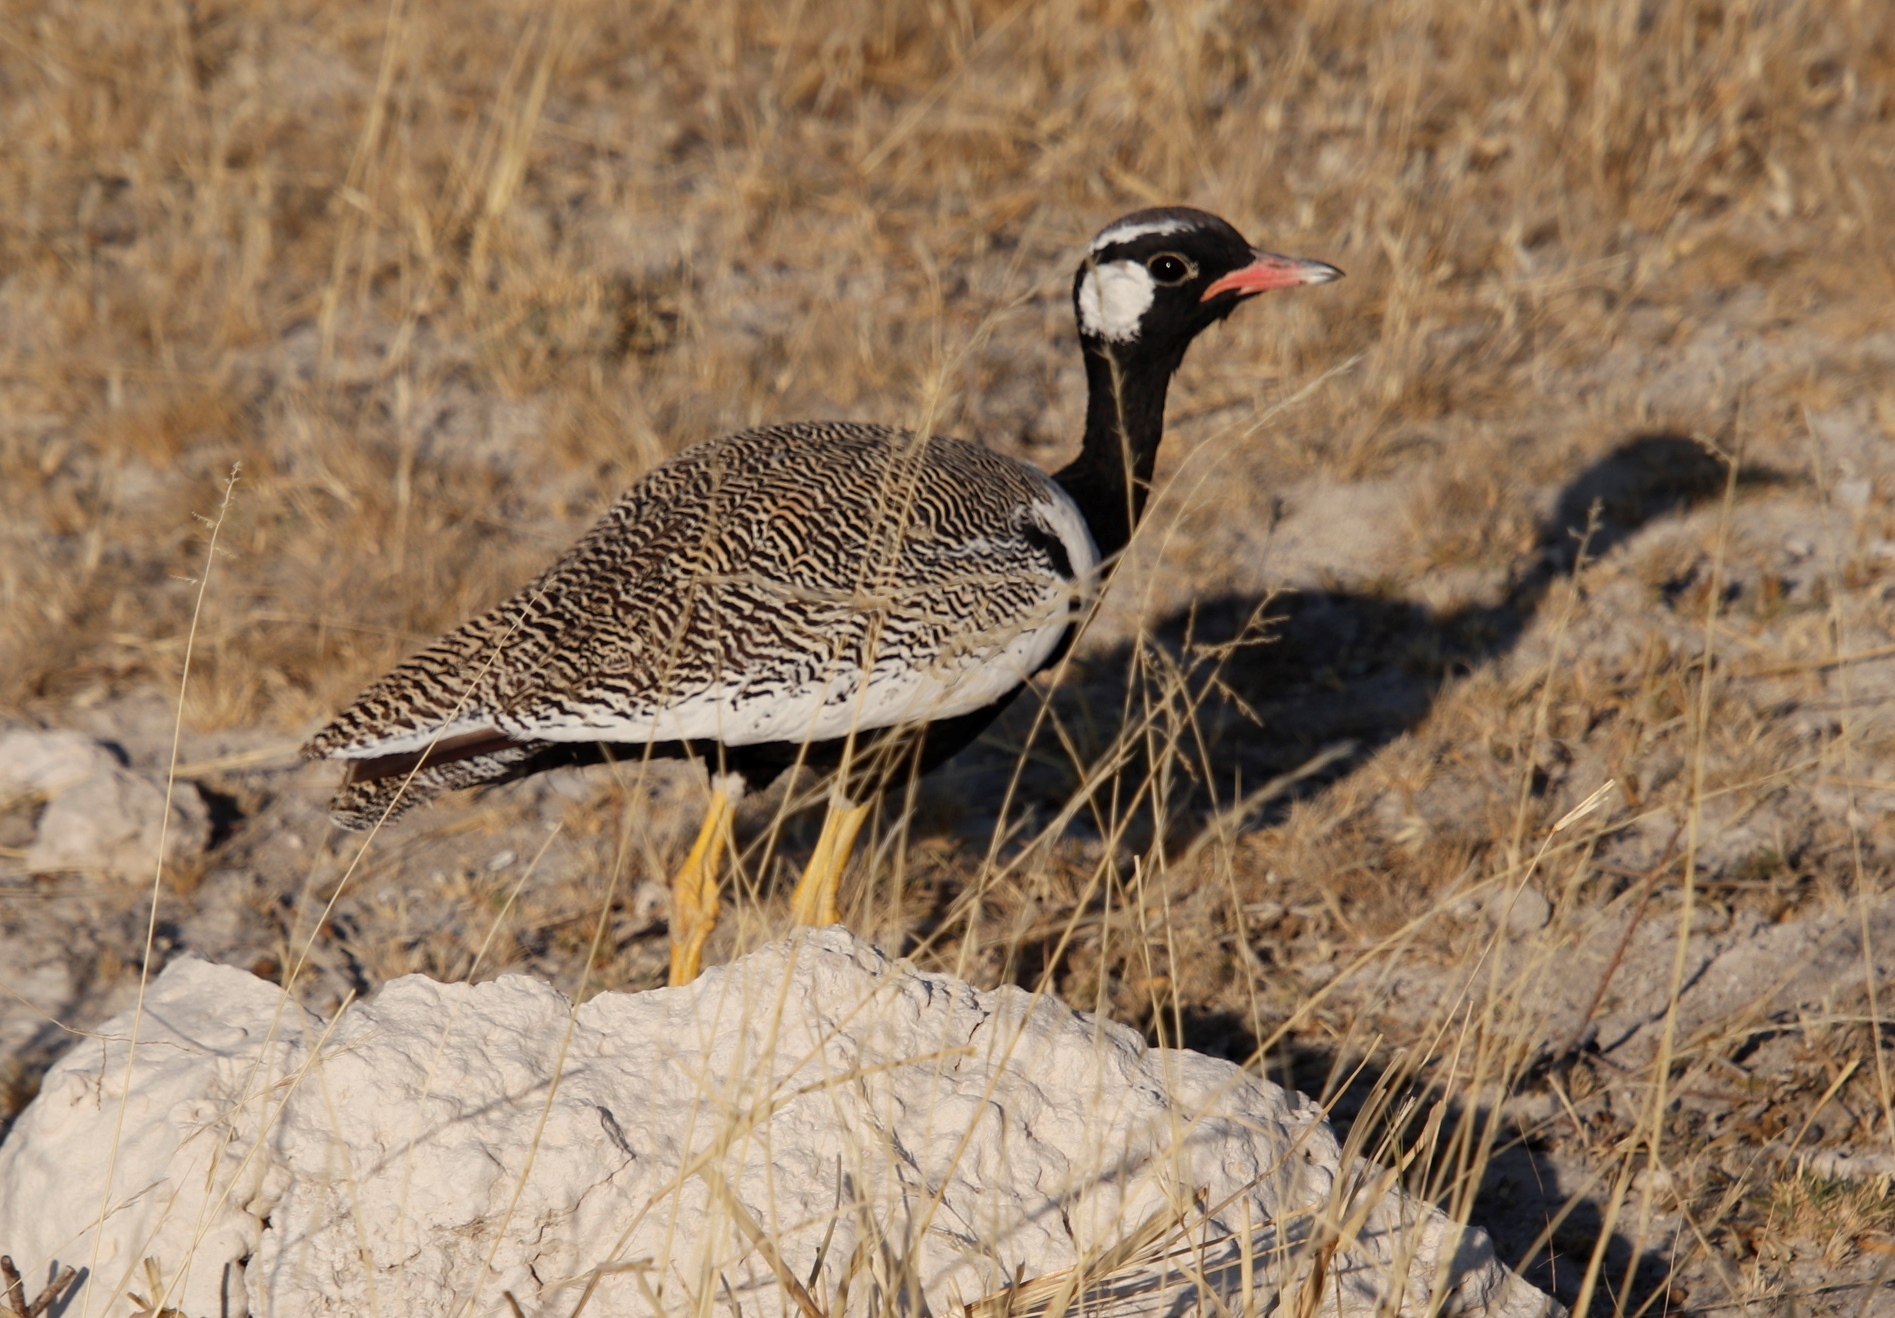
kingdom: Animalia
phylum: Chordata
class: Aves
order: Otidiformes
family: Otididae
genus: Afrotis
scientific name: Afrotis afraoides
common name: Northern black korhaan
